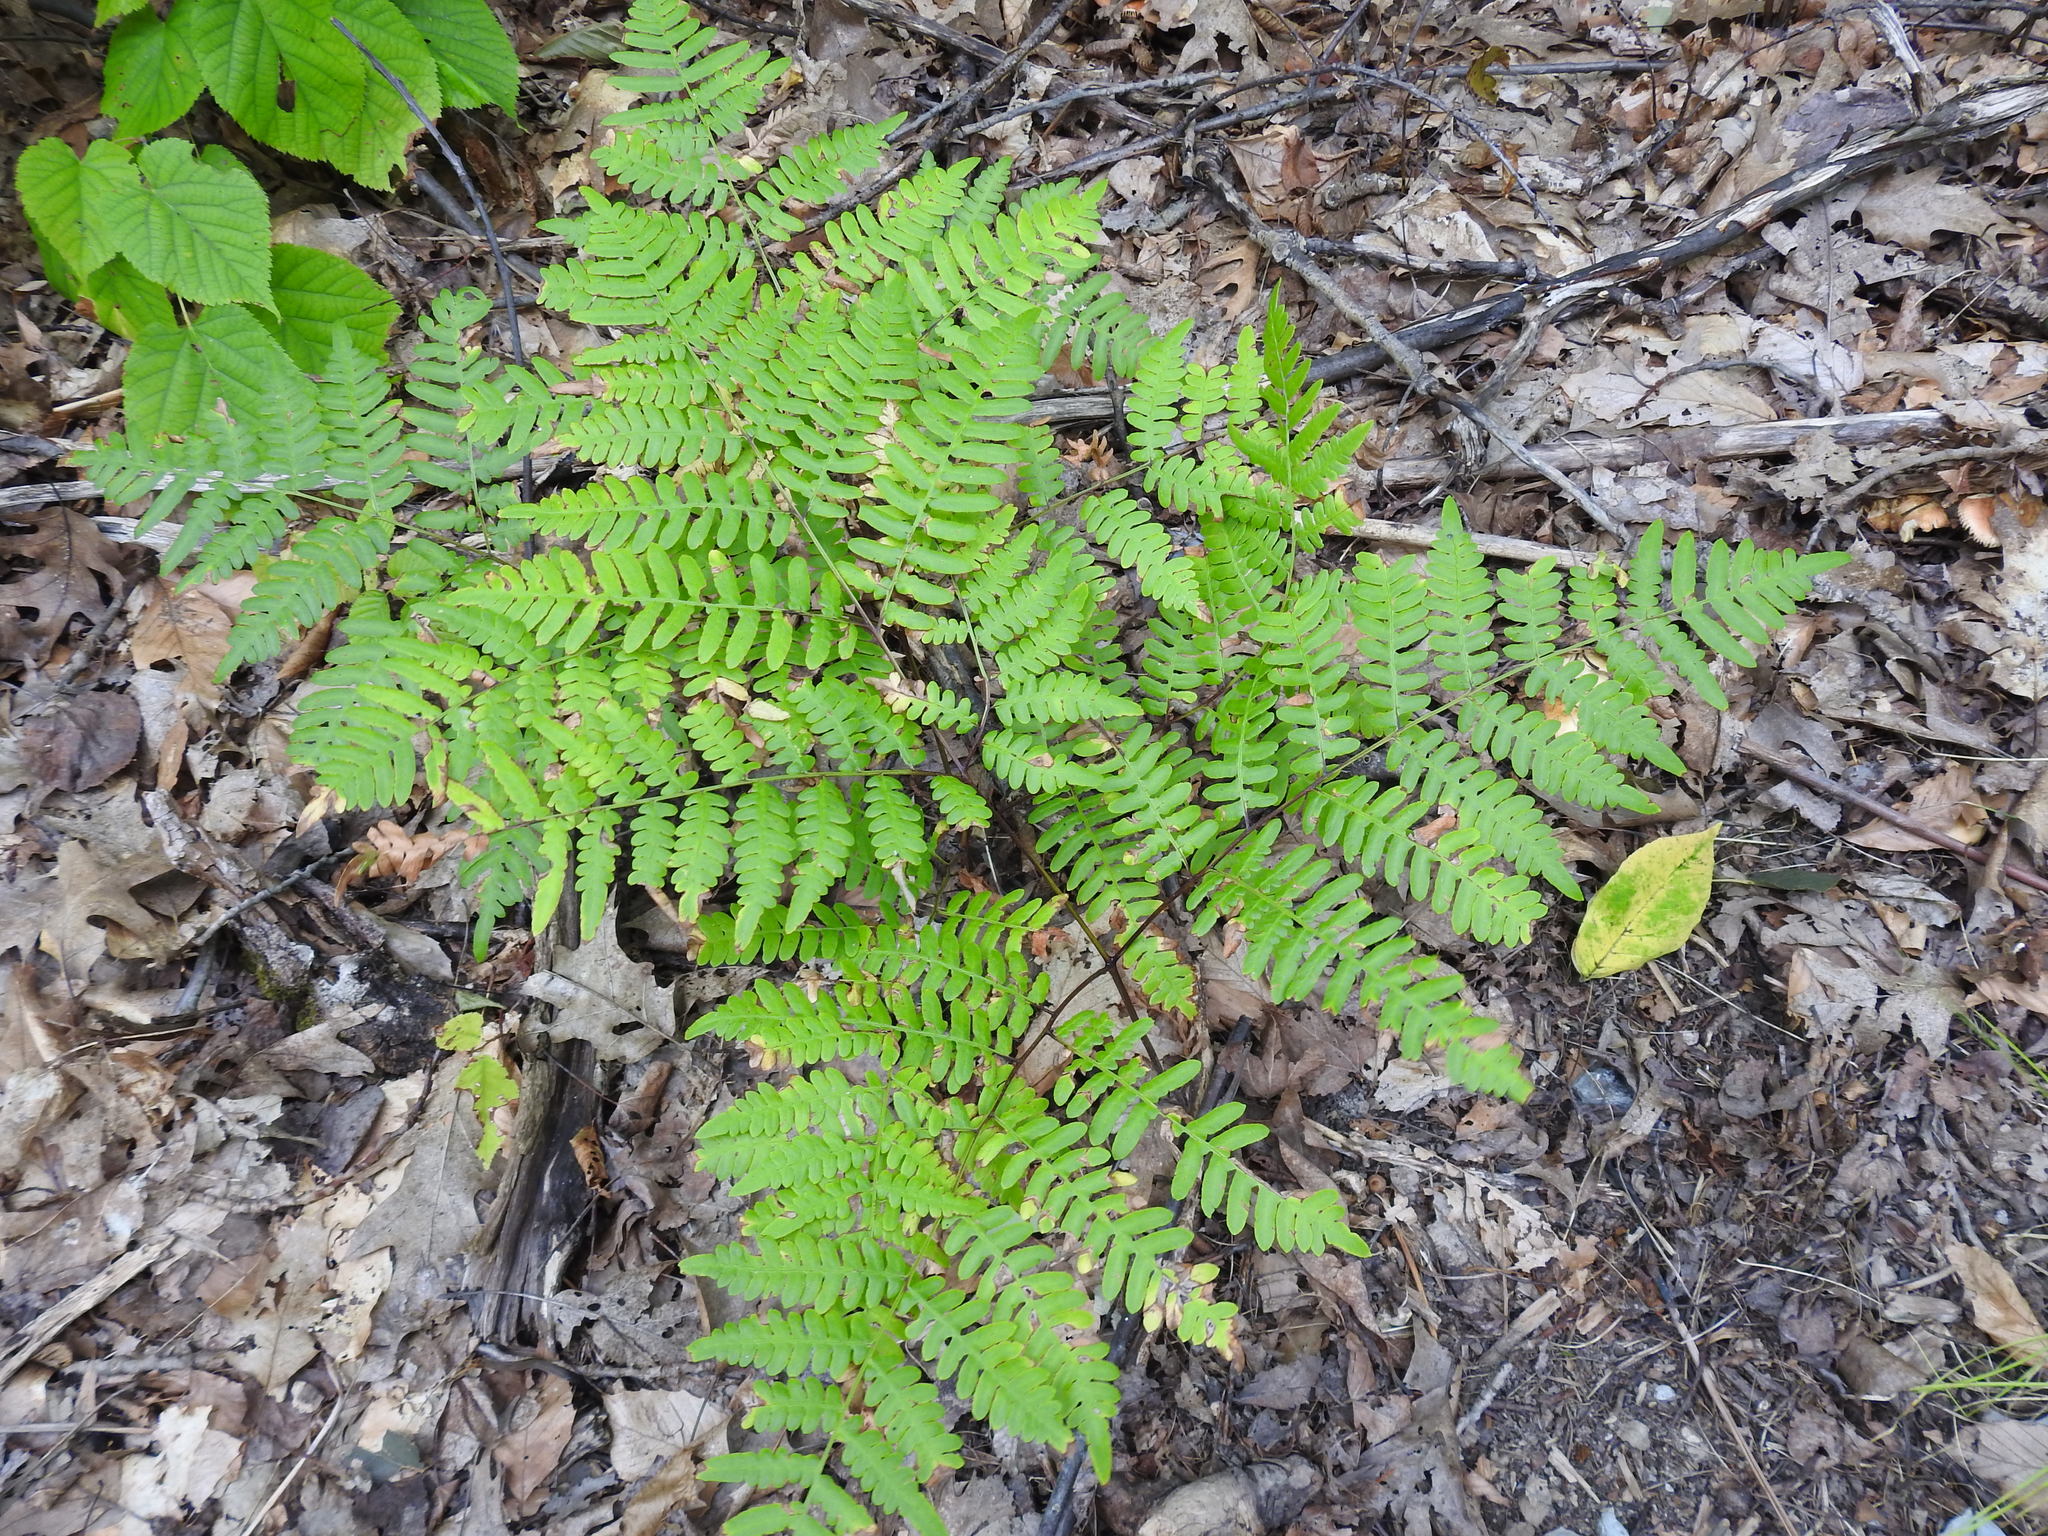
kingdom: Plantae
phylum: Tracheophyta
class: Polypodiopsida
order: Polypodiales
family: Dennstaedtiaceae
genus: Pteridium
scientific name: Pteridium aquilinum
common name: Bracken
